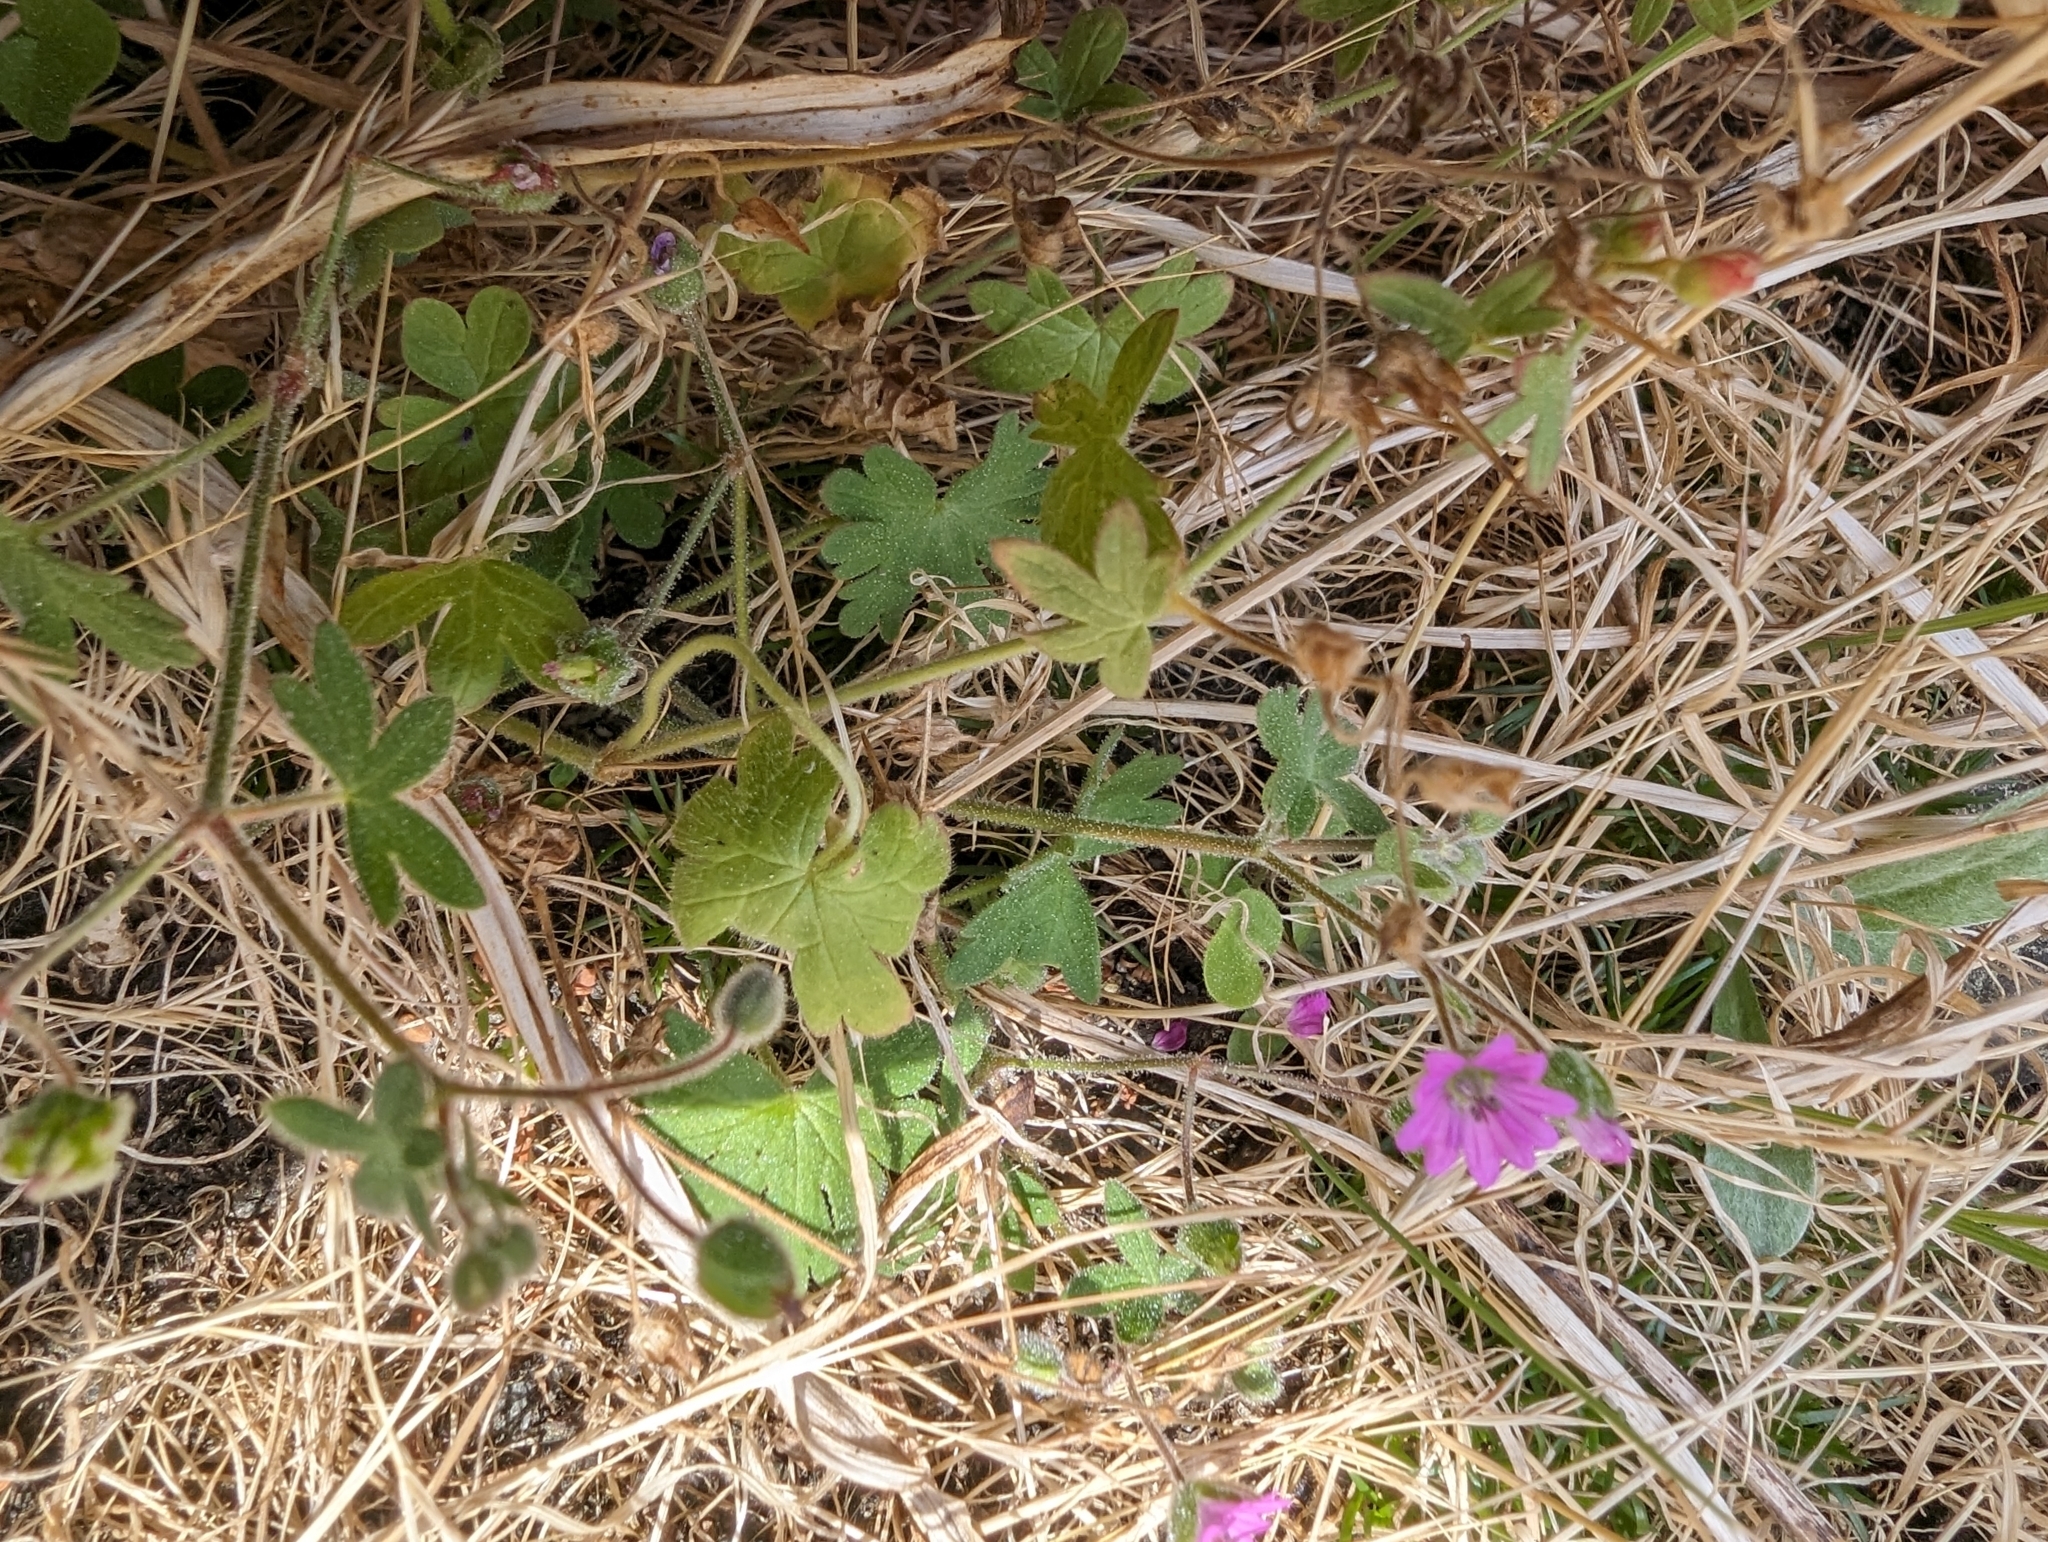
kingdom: Plantae
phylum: Tracheophyta
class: Magnoliopsida
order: Geraniales
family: Geraniaceae
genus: Geranium
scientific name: Geranium molle
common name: Dove's-foot crane's-bill
